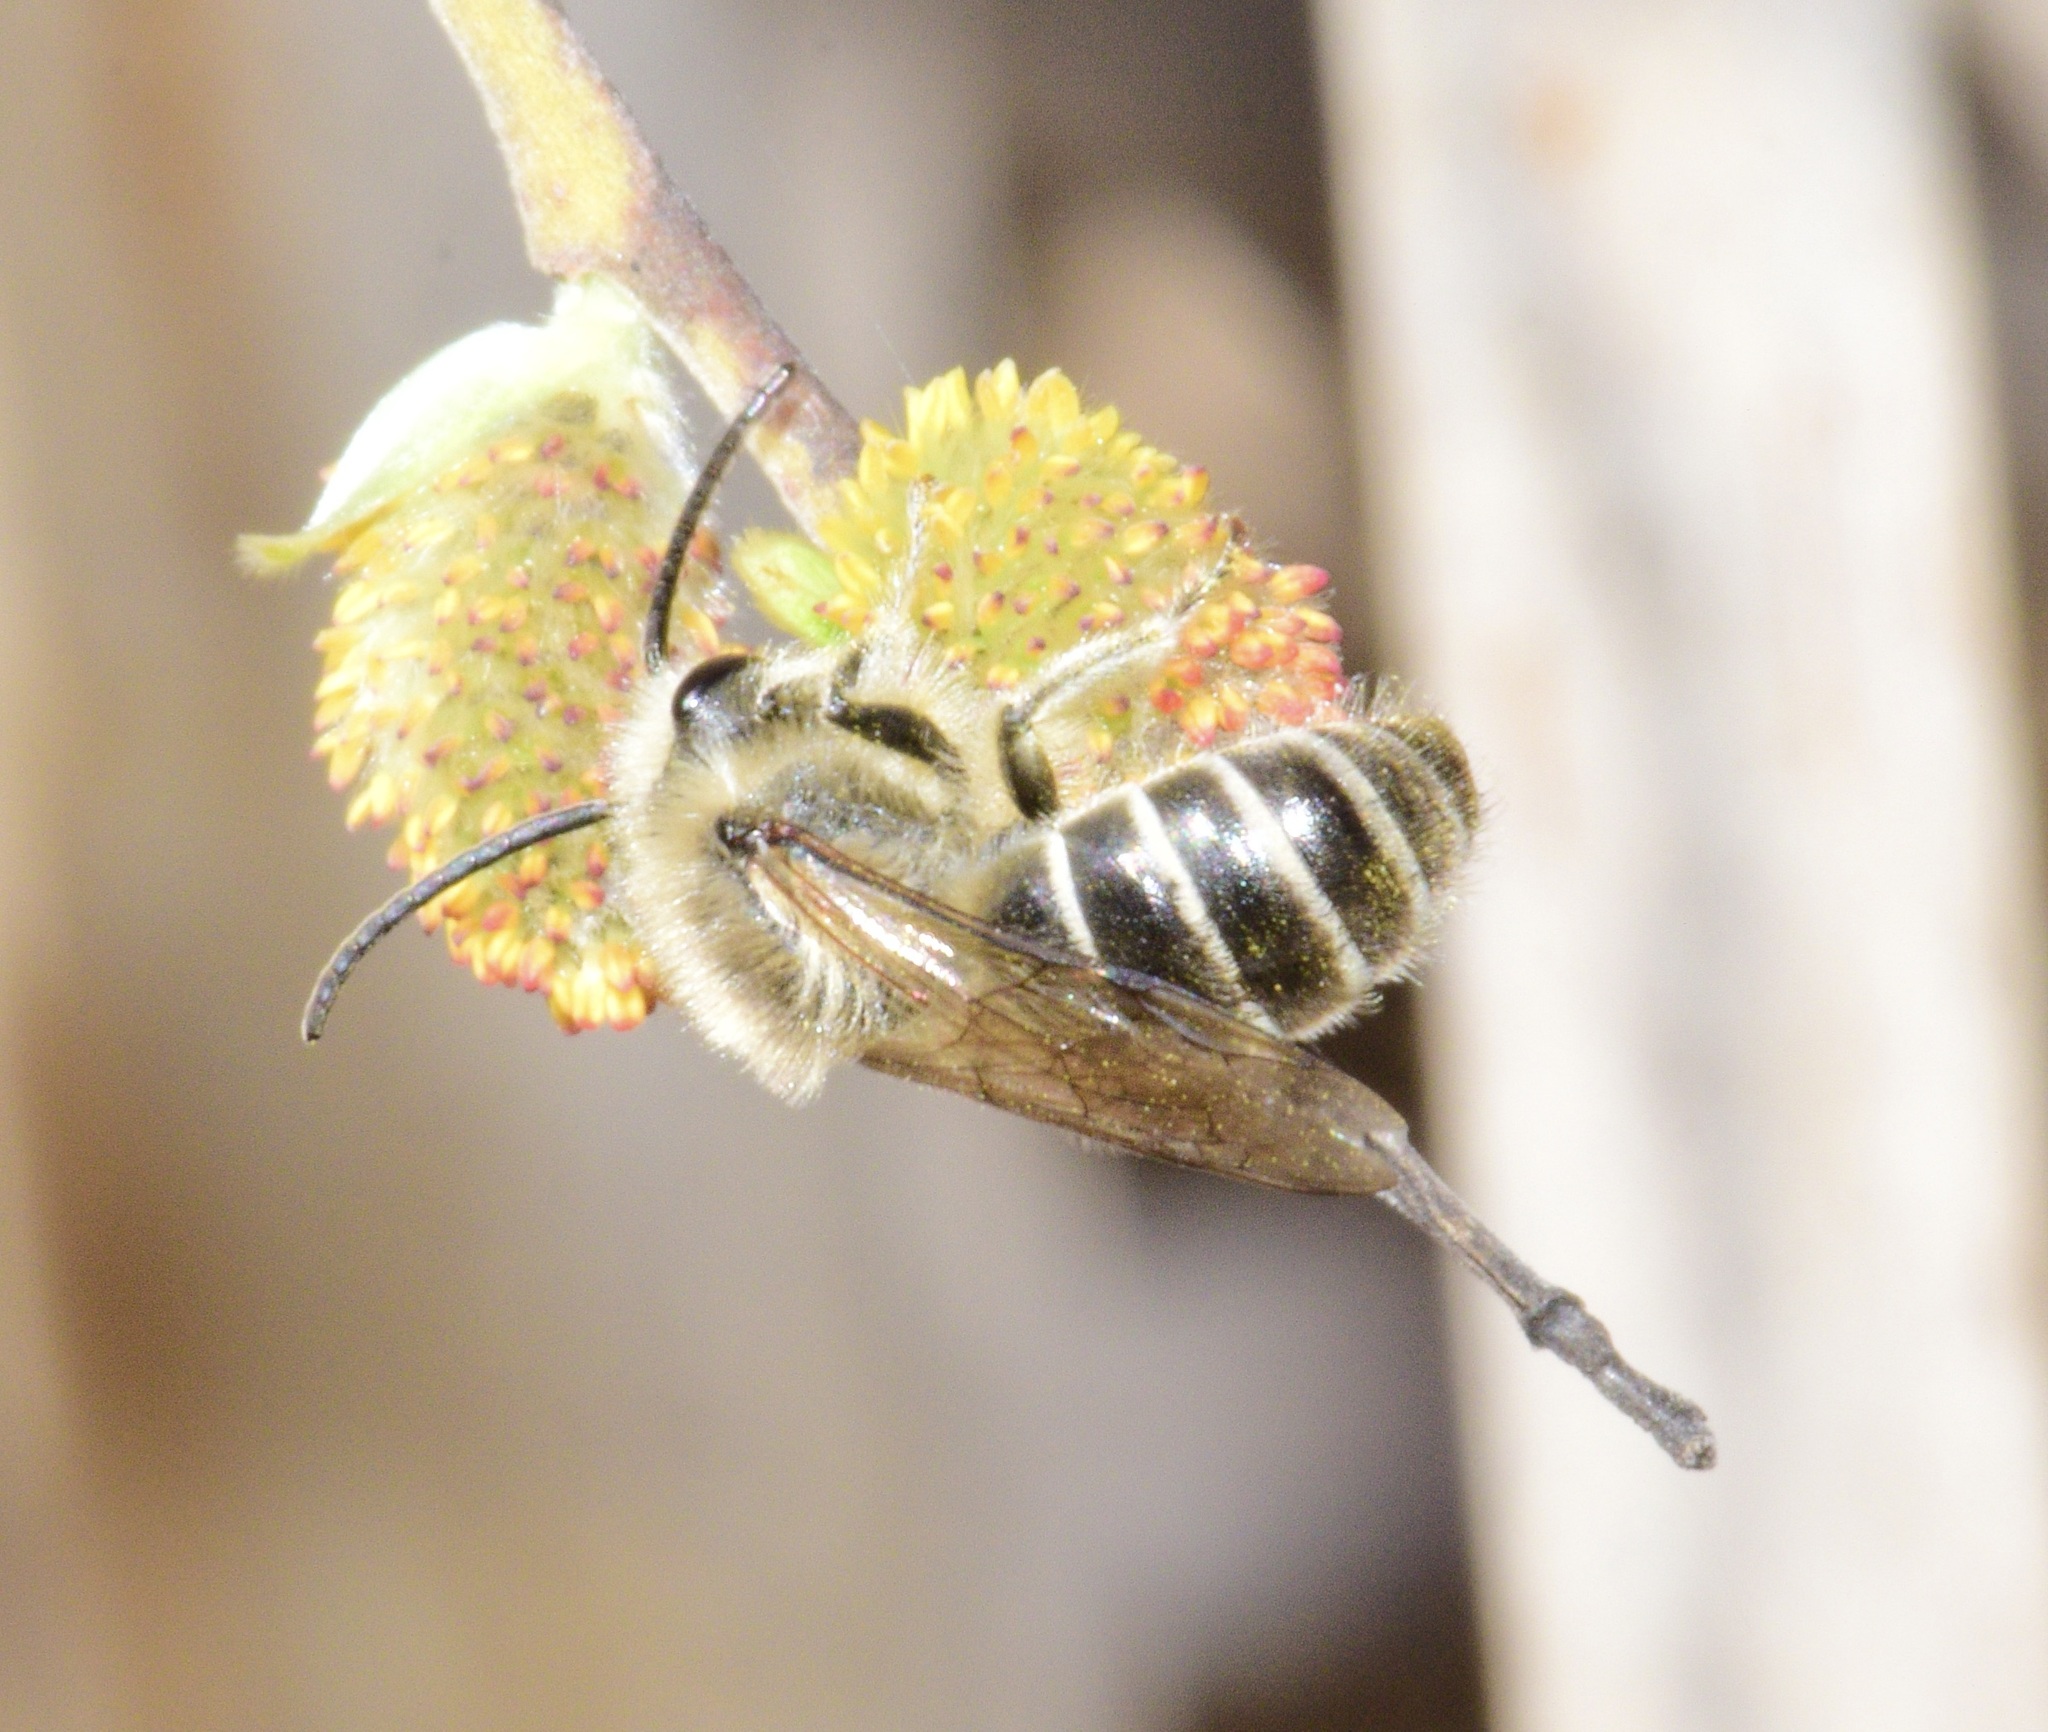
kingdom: Animalia
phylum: Arthropoda
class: Insecta
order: Hymenoptera
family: Colletidae
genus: Colletes
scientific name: Colletes inaequalis
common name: Unequal cellophane bee
